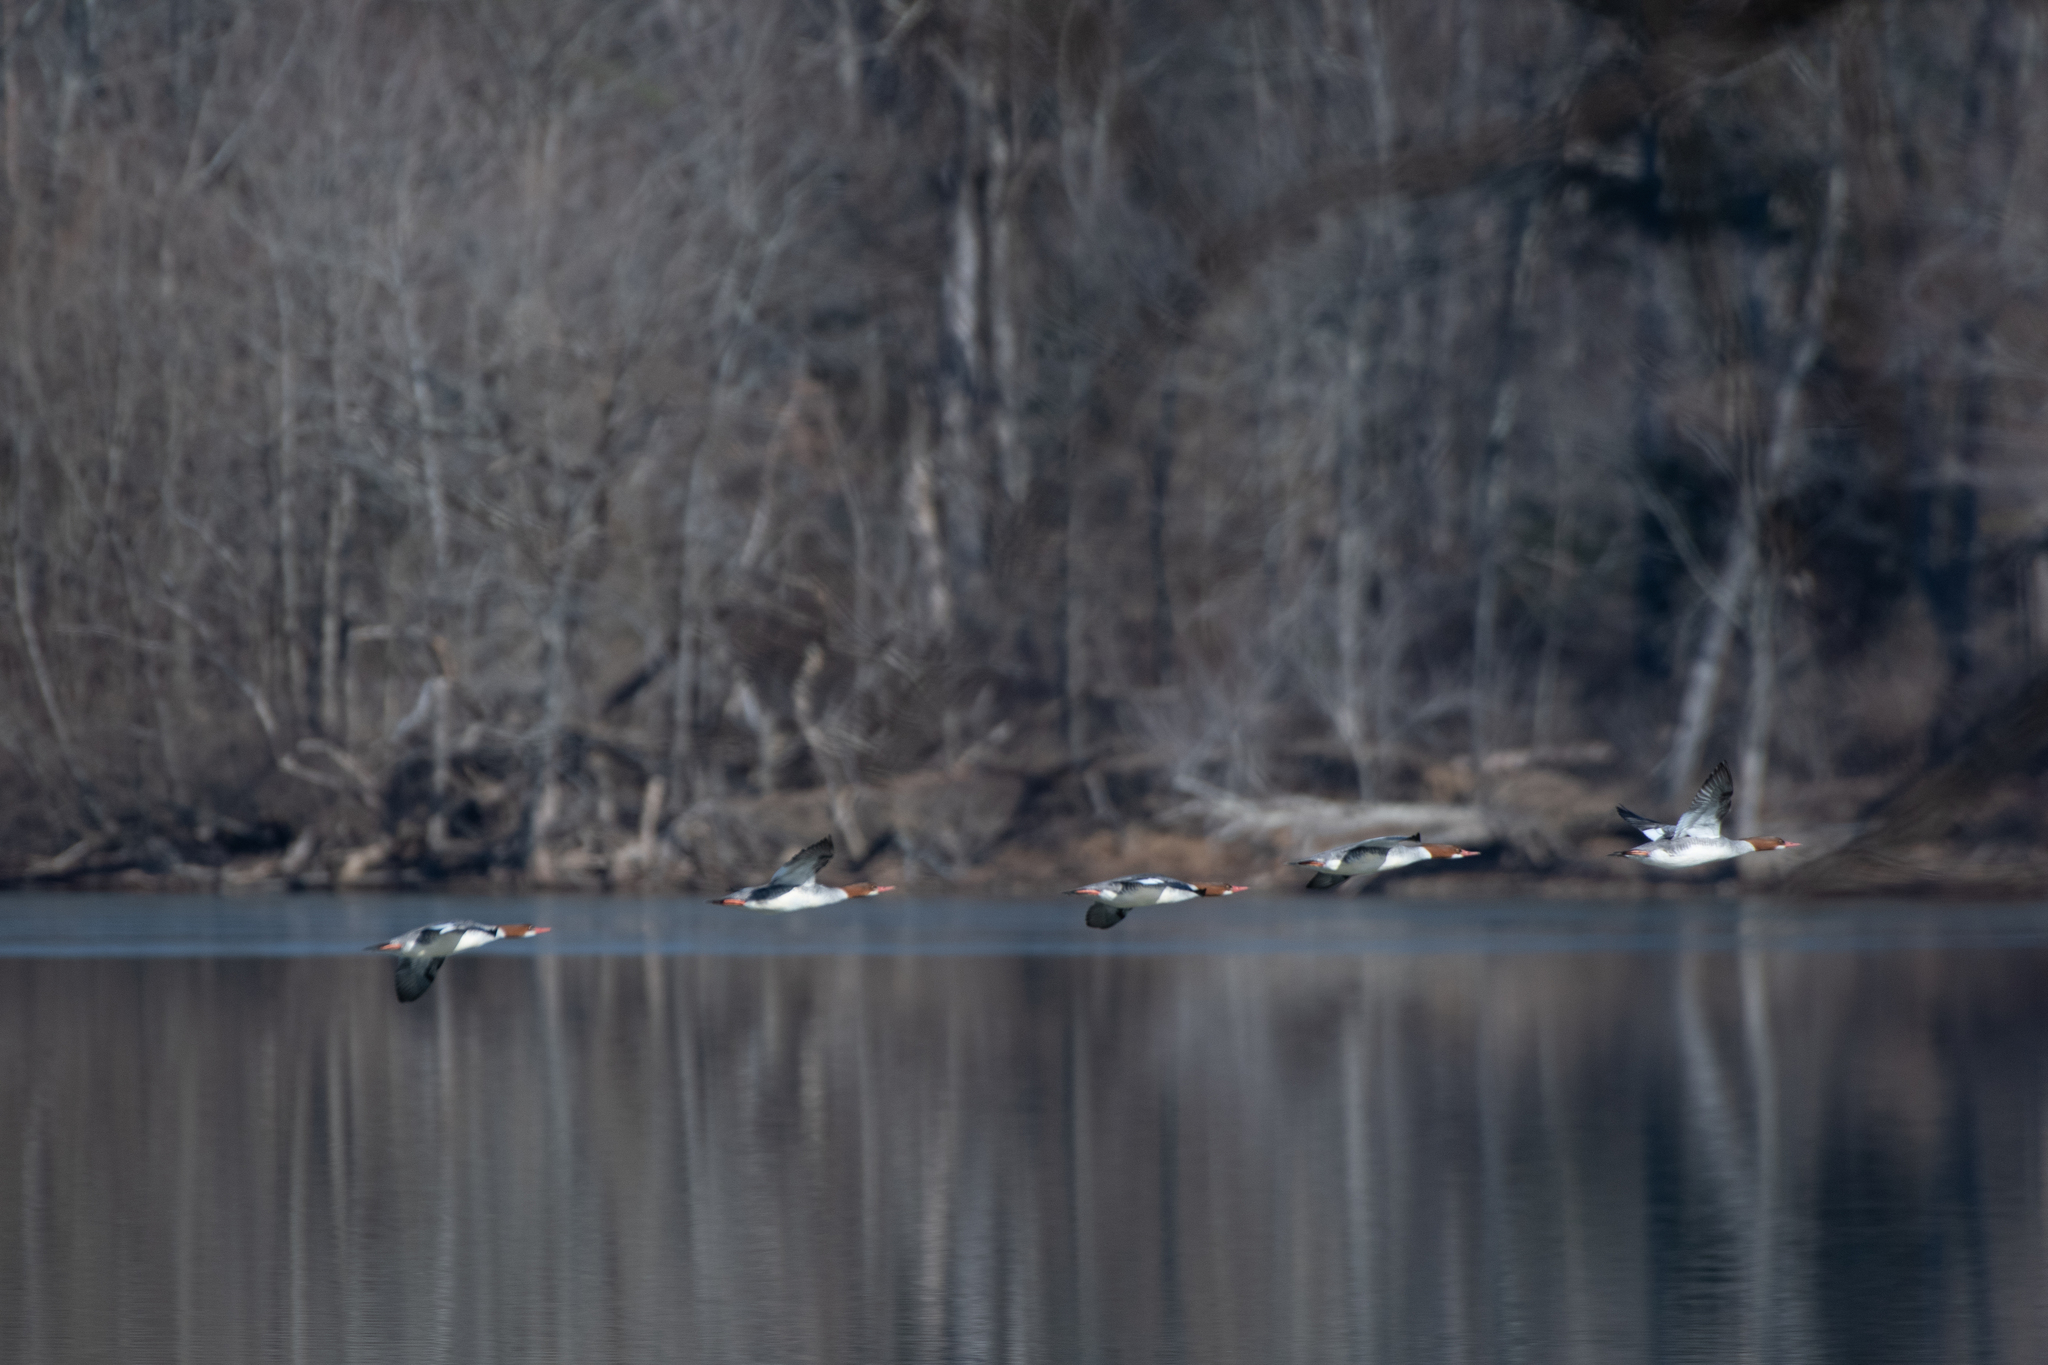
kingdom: Animalia
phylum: Chordata
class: Aves
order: Anseriformes
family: Anatidae
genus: Mergus
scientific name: Mergus merganser
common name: Common merganser
